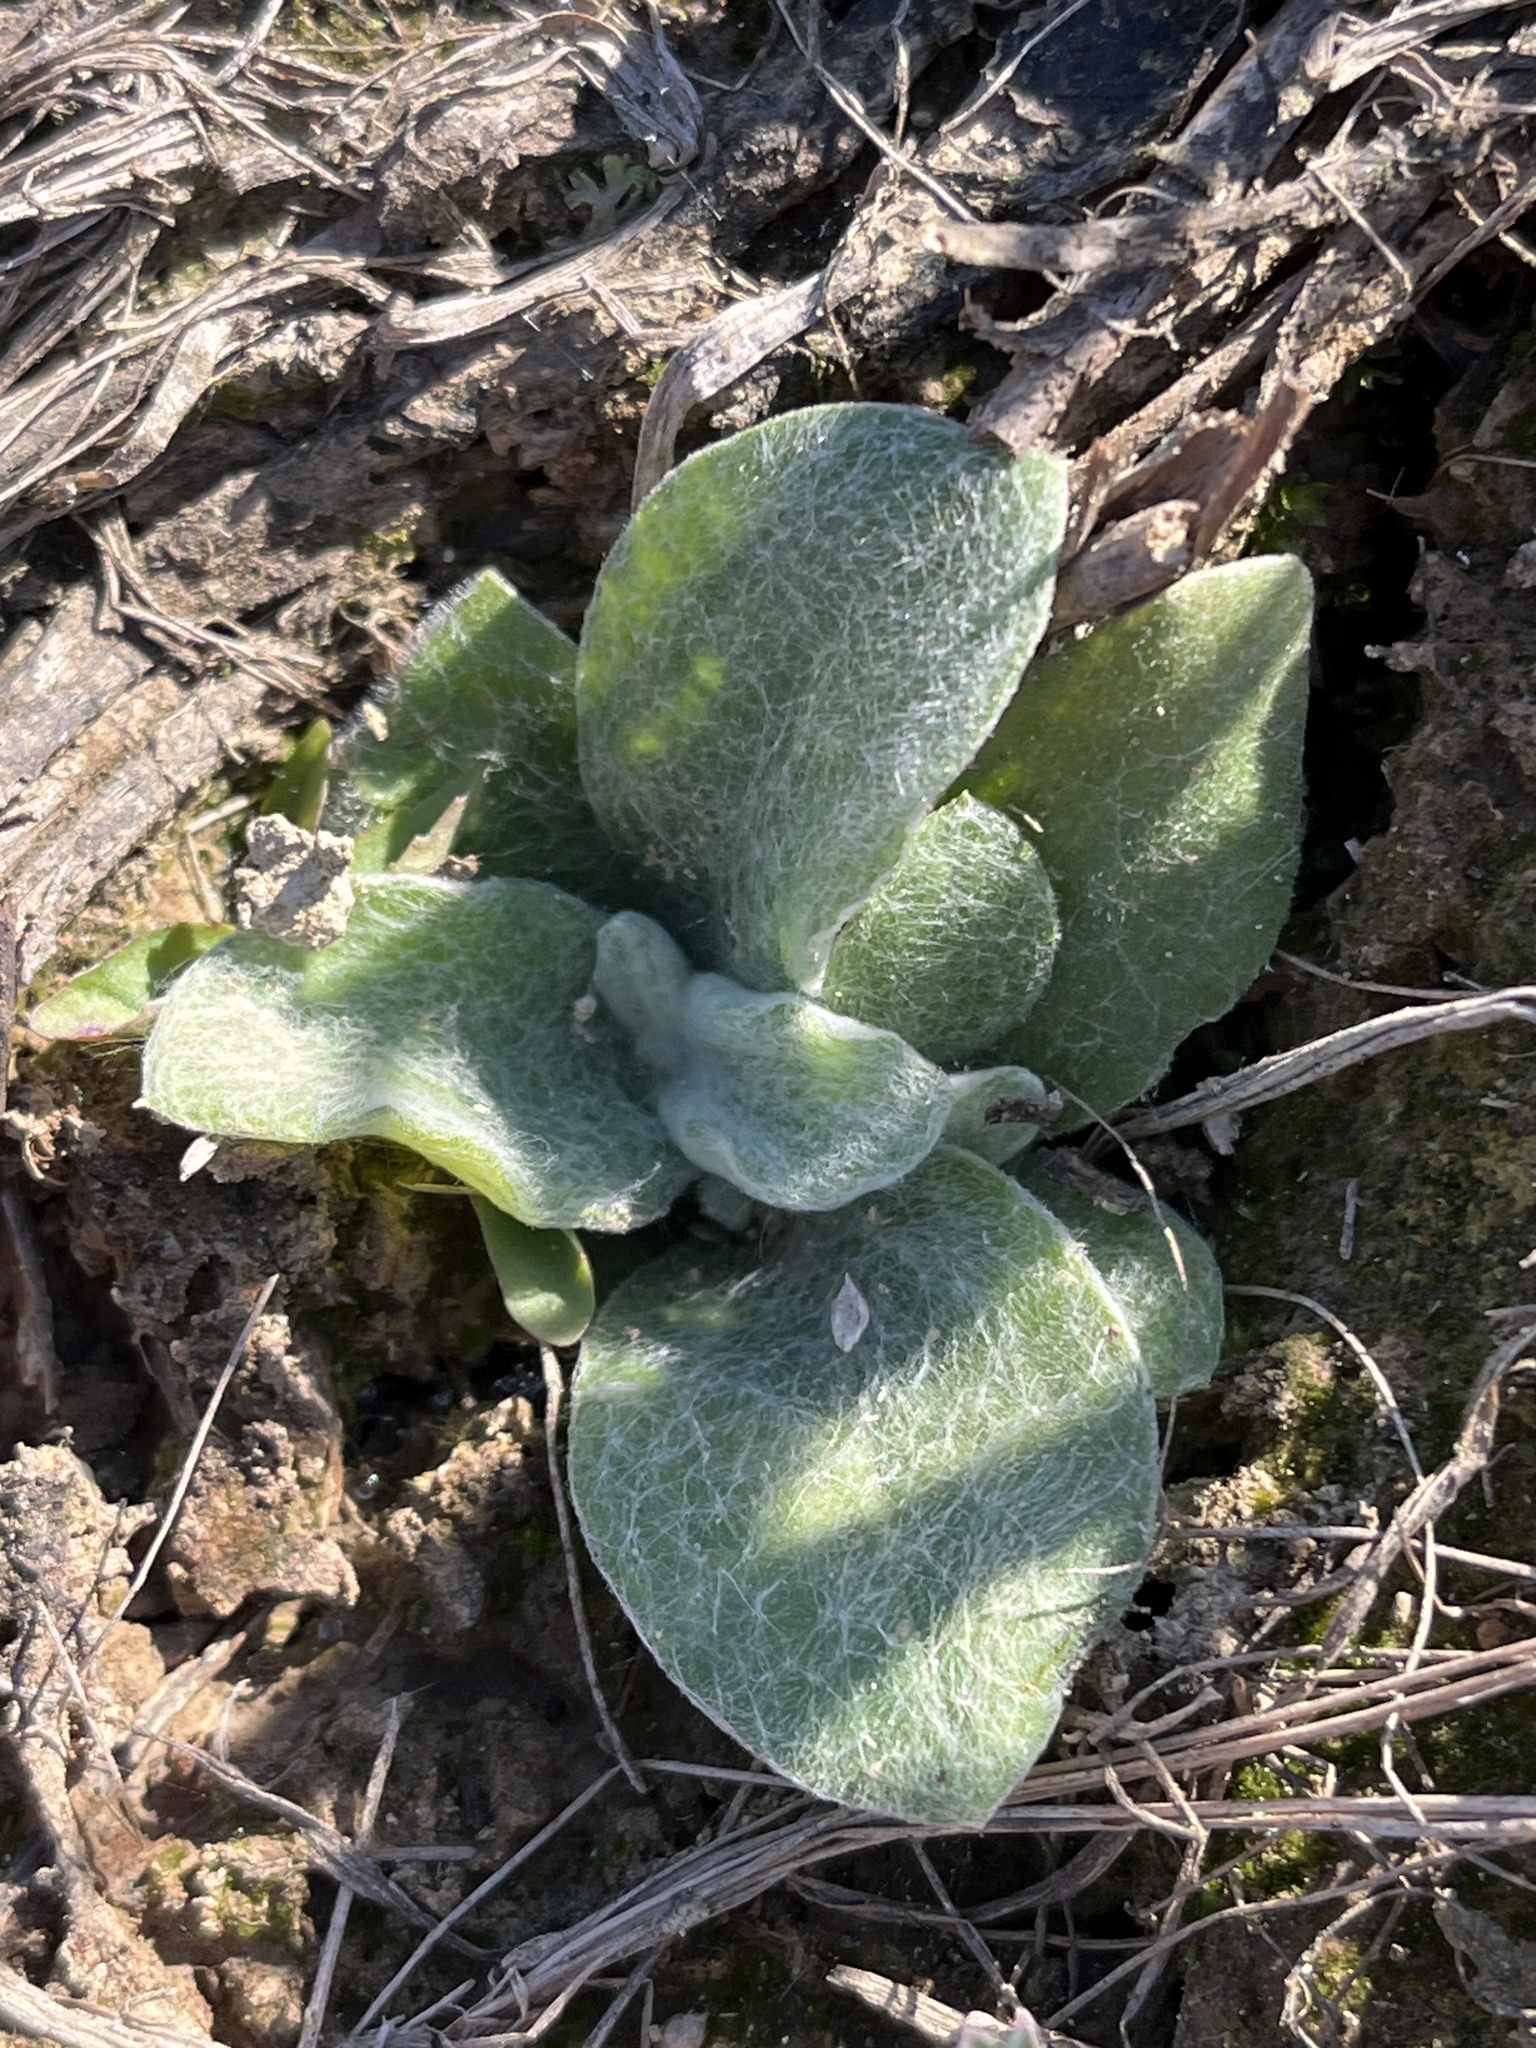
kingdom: Plantae
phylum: Tracheophyta
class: Magnoliopsida
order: Lamiales
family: Scrophulariaceae
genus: Verbascum
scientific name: Verbascum thapsus
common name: Common mullein
